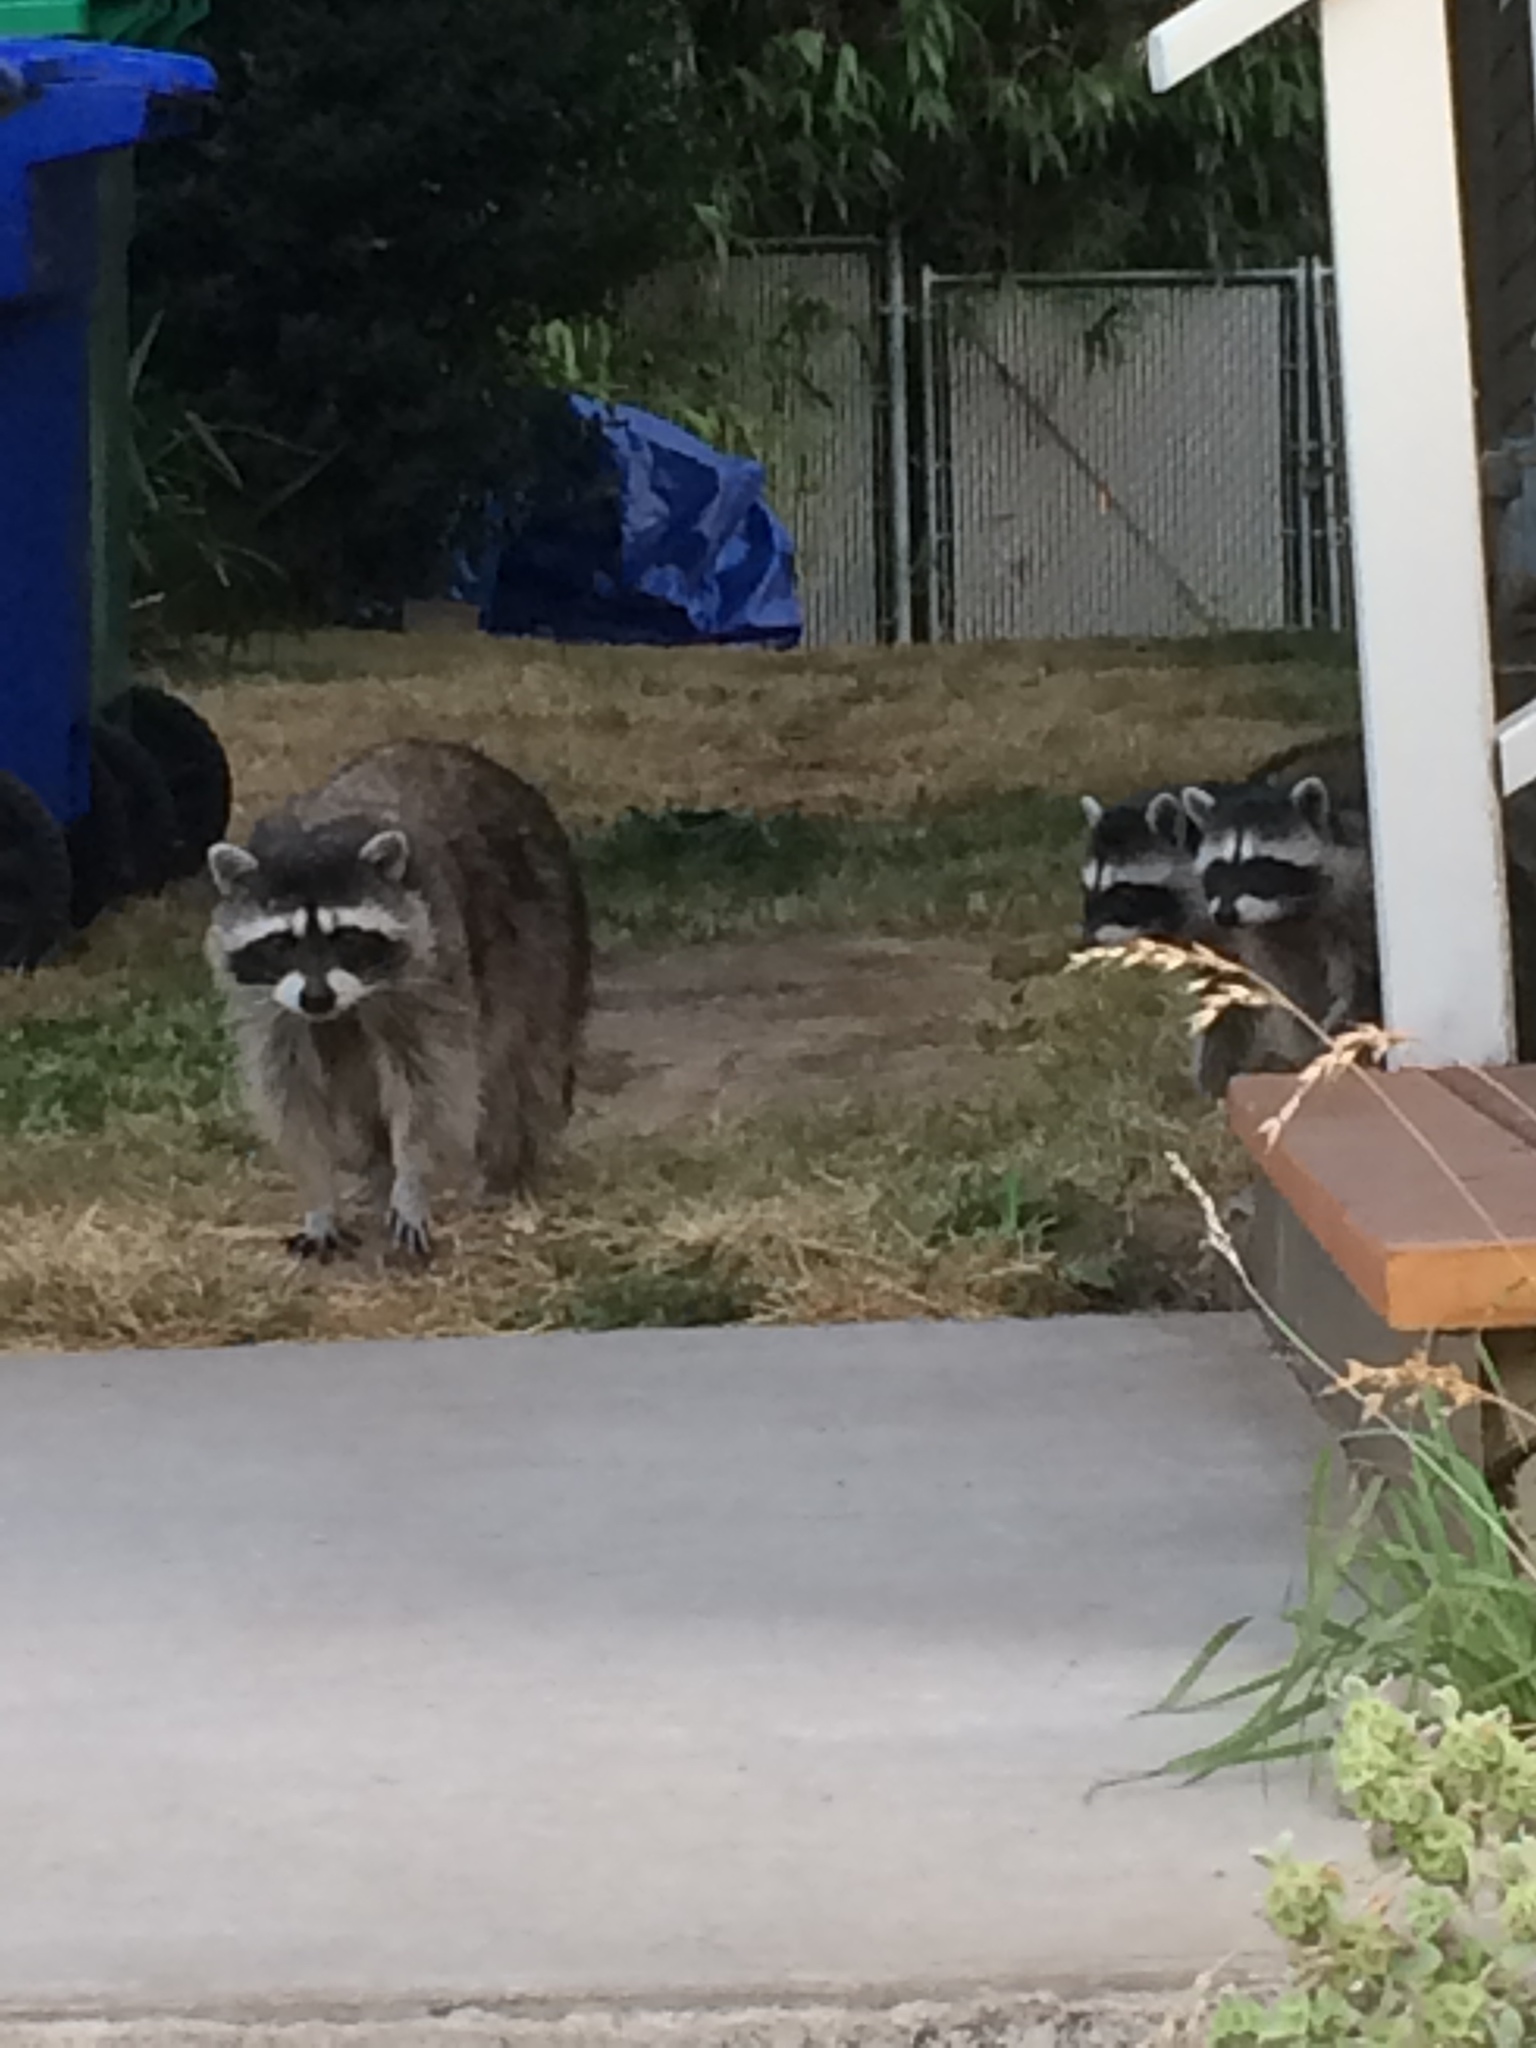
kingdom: Animalia
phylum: Chordata
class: Mammalia
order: Carnivora
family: Procyonidae
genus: Procyon
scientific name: Procyon lotor
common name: Raccoon
